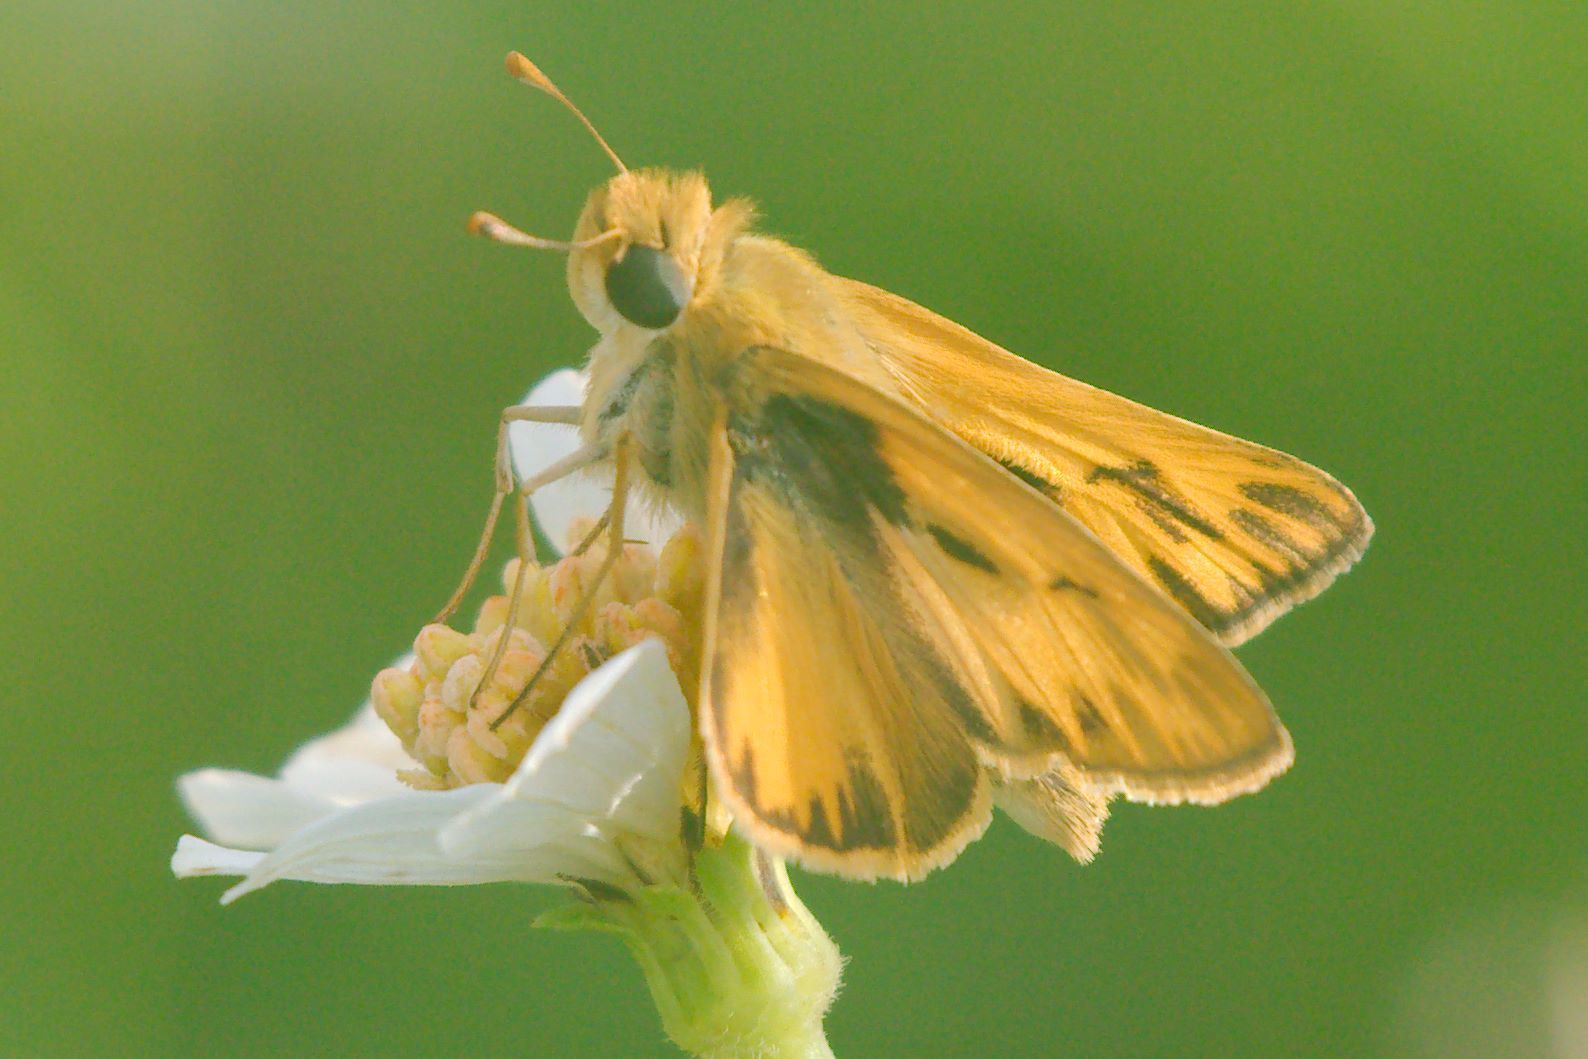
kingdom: Animalia
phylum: Arthropoda
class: Insecta
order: Lepidoptera
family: Hesperiidae
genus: Hylephila
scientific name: Hylephila phyleus
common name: Fiery skipper
